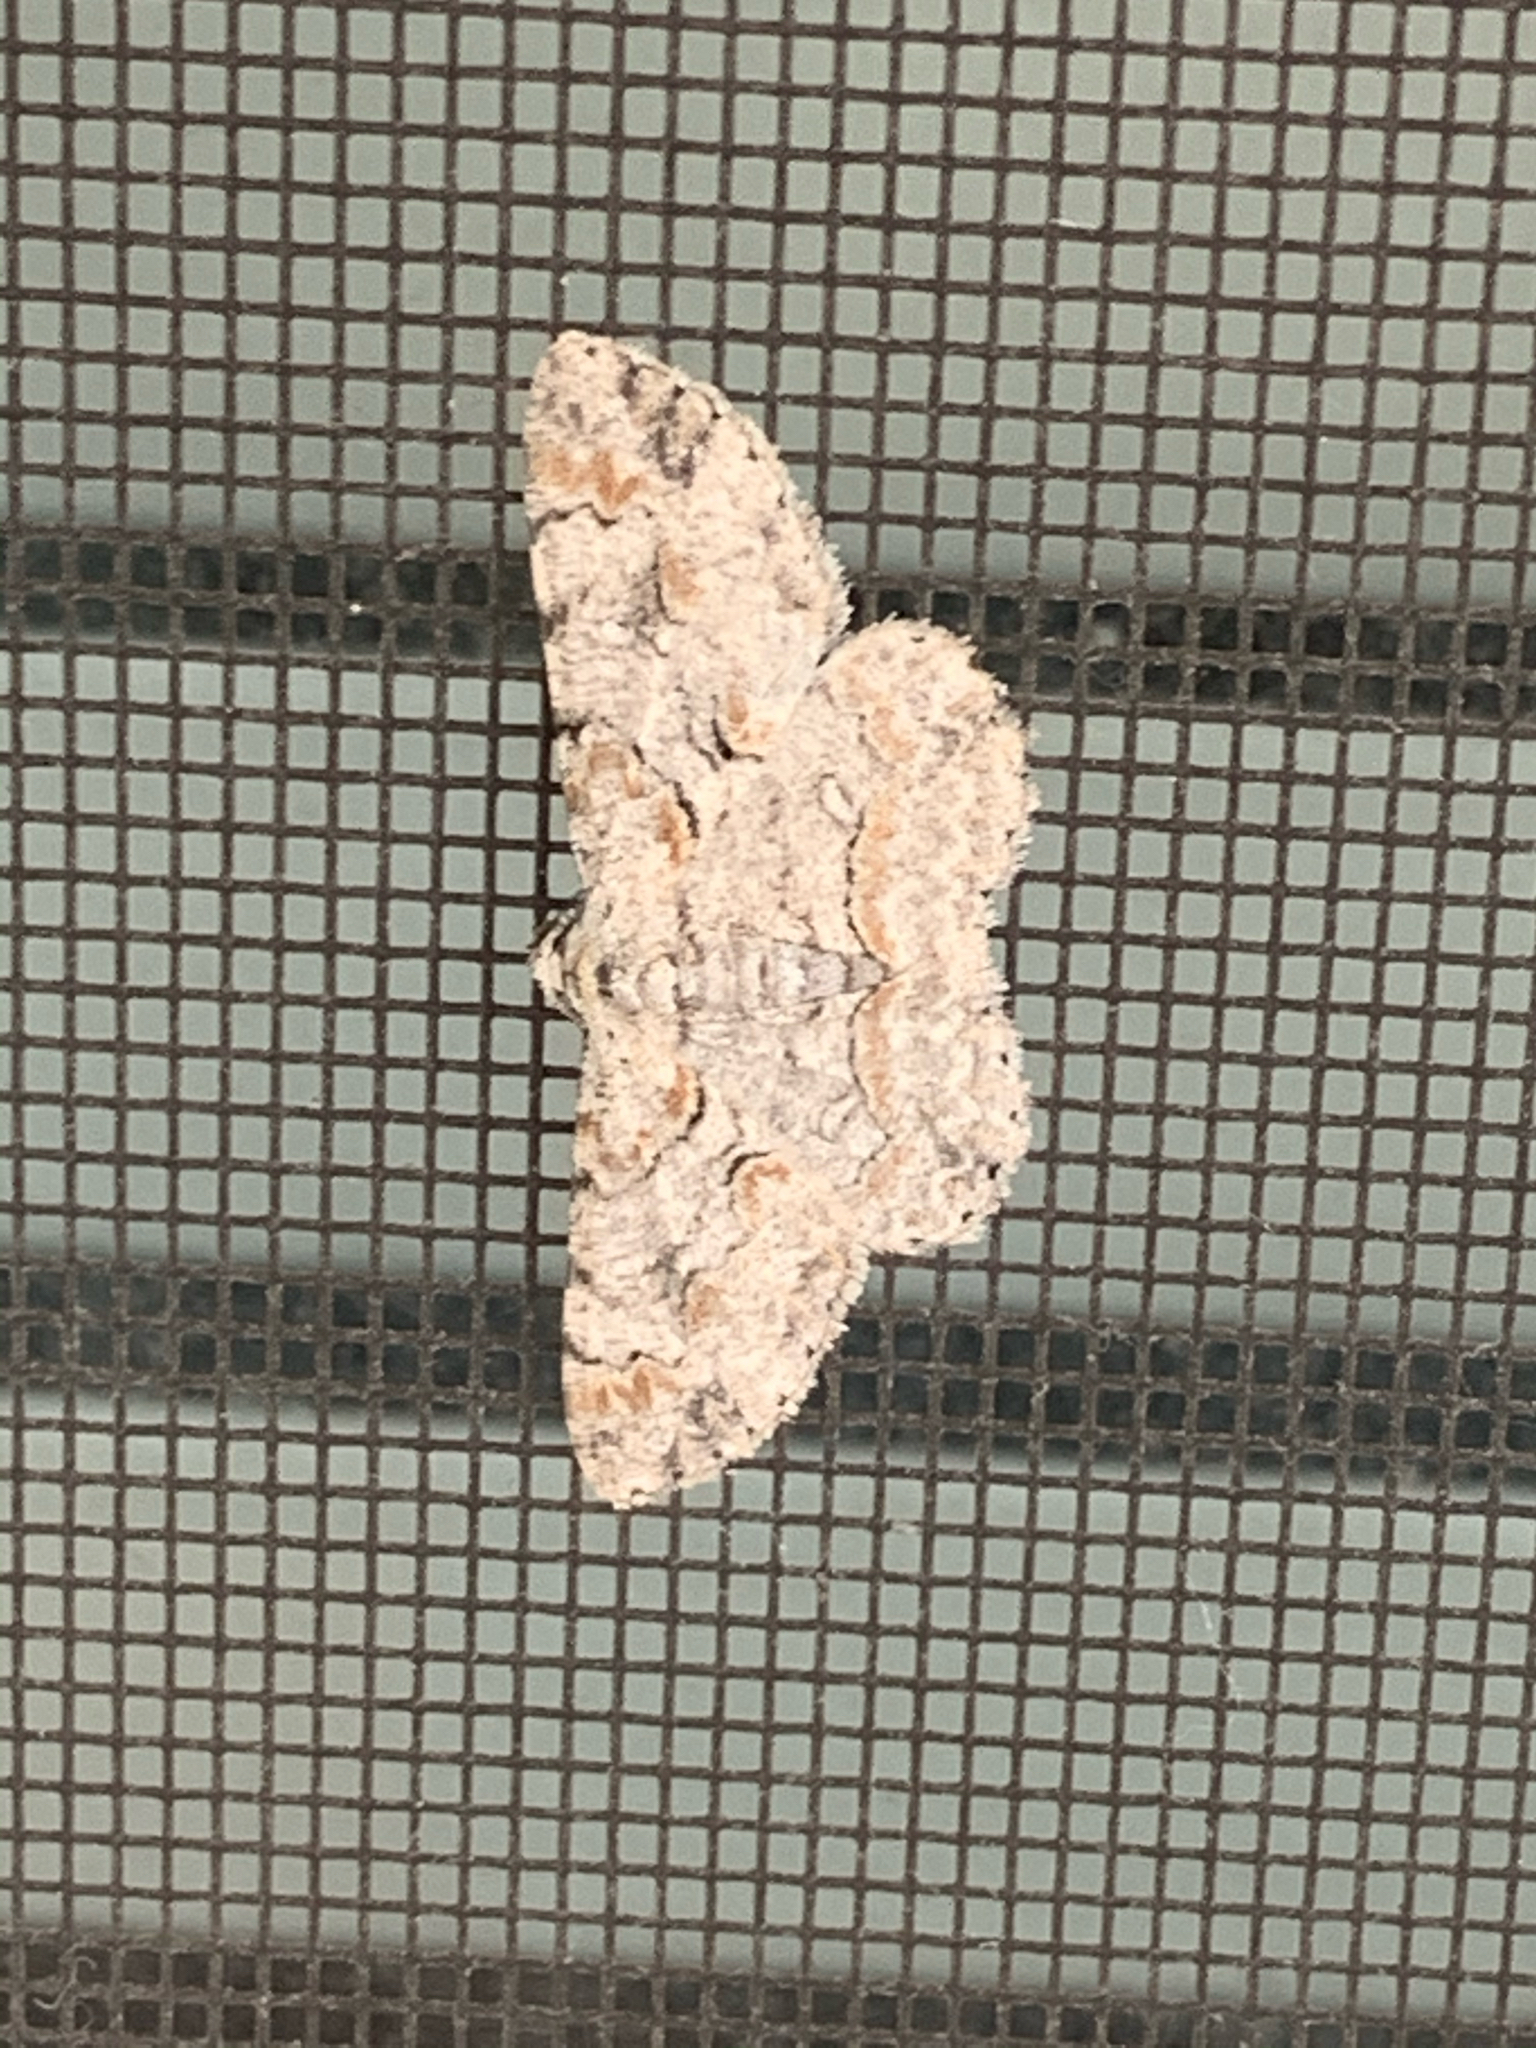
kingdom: Animalia
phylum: Arthropoda
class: Insecta
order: Lepidoptera
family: Geometridae
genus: Iridopsis
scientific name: Iridopsis defectaria
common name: Brown-shaded gray
